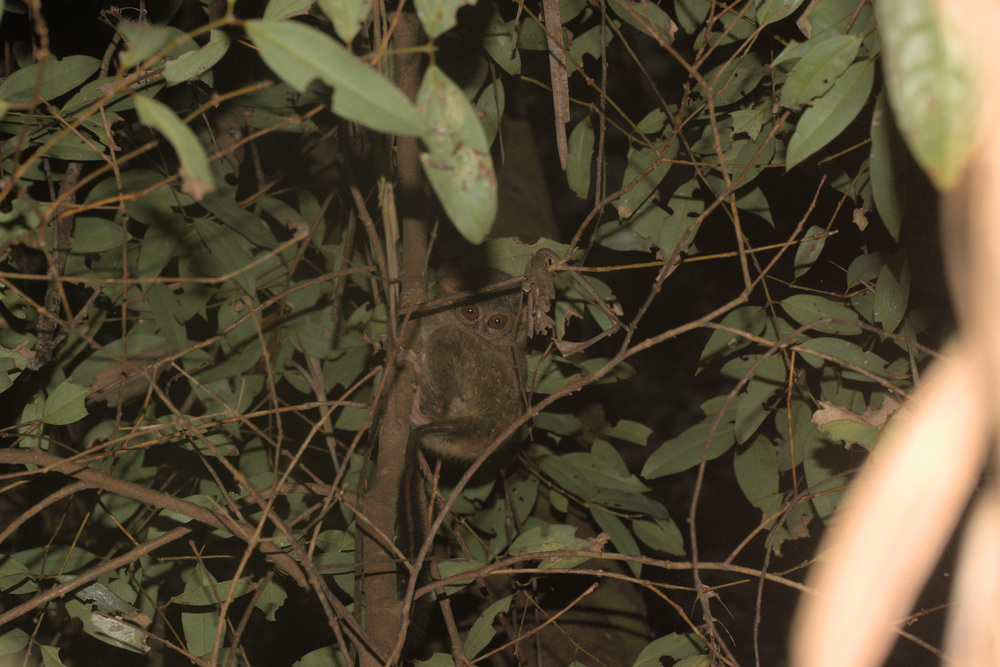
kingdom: Animalia
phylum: Chordata
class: Mammalia
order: Primates
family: Tarsiidae
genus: Tarsius
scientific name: Tarsius spectrumgurskyae
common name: Gursky's spectral tarsier
